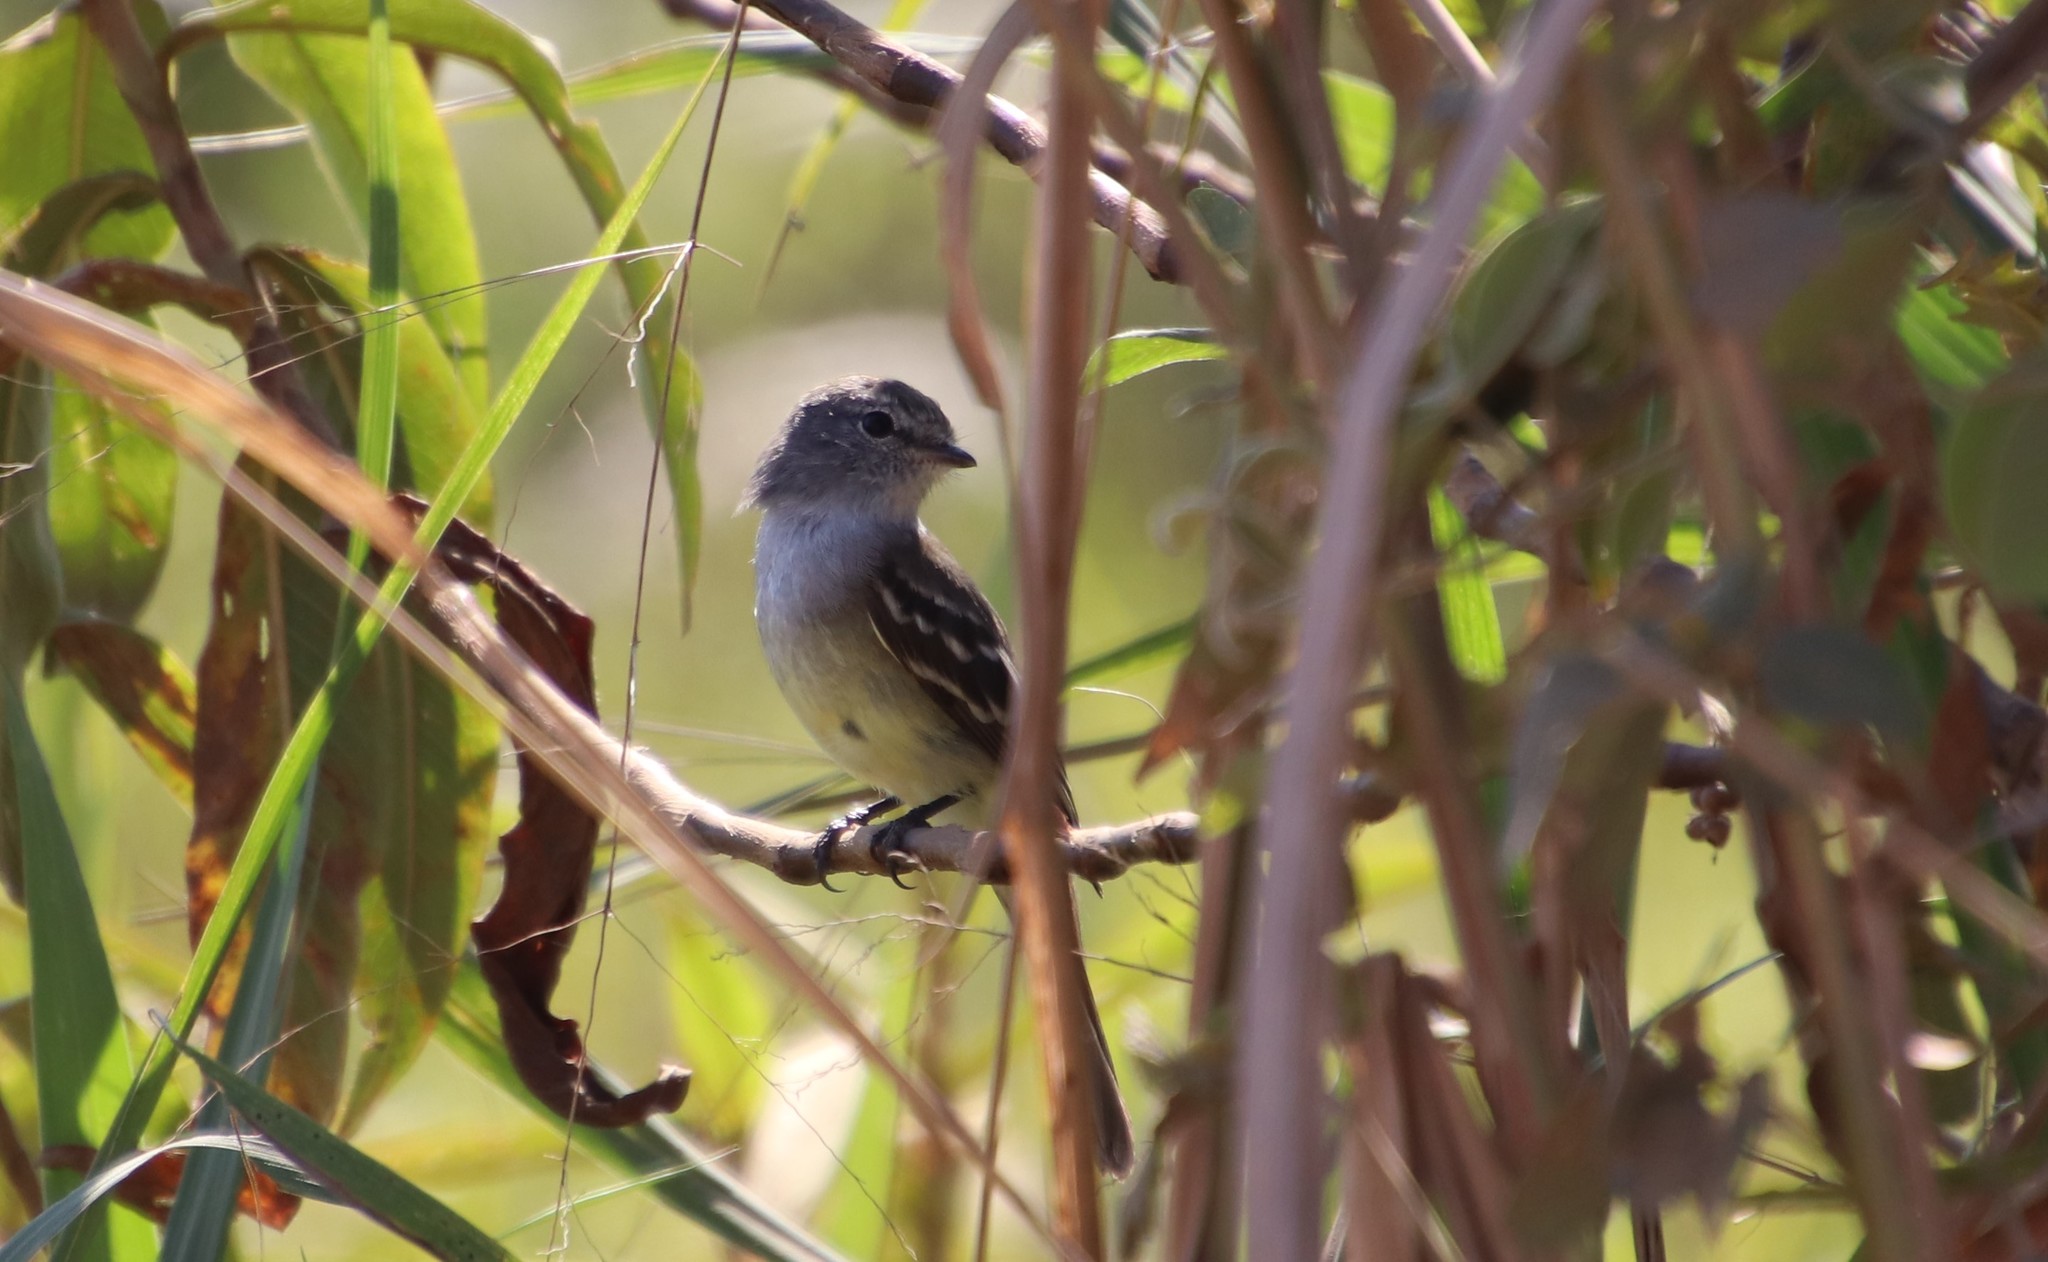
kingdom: Animalia
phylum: Chordata
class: Aves
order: Passeriformes
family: Tyrannidae
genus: Sublegatus
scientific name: Sublegatus modestus
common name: Southern scrub flycatcher
